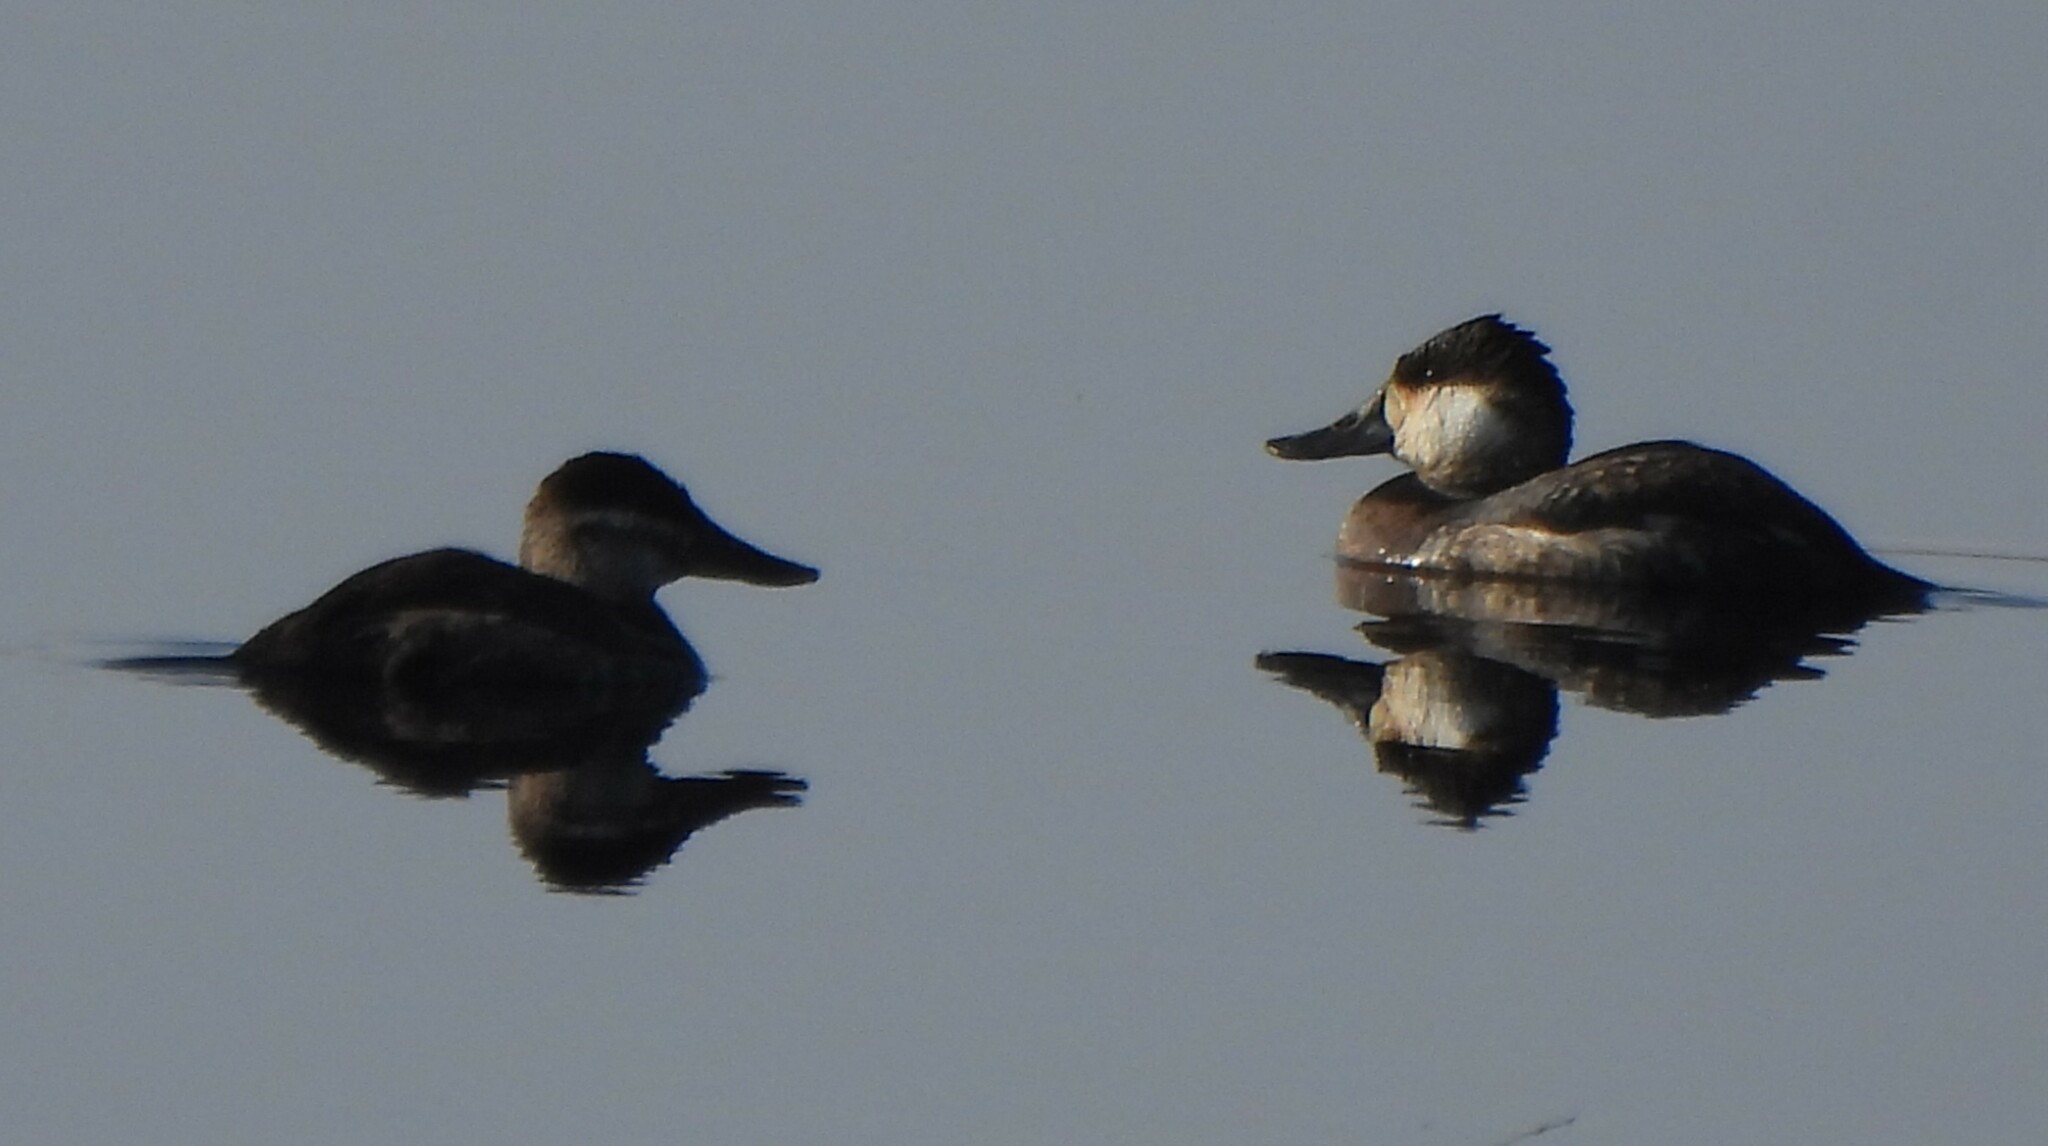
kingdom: Animalia
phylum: Chordata
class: Aves
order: Anseriformes
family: Anatidae
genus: Oxyura
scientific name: Oxyura jamaicensis
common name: Ruddy duck
